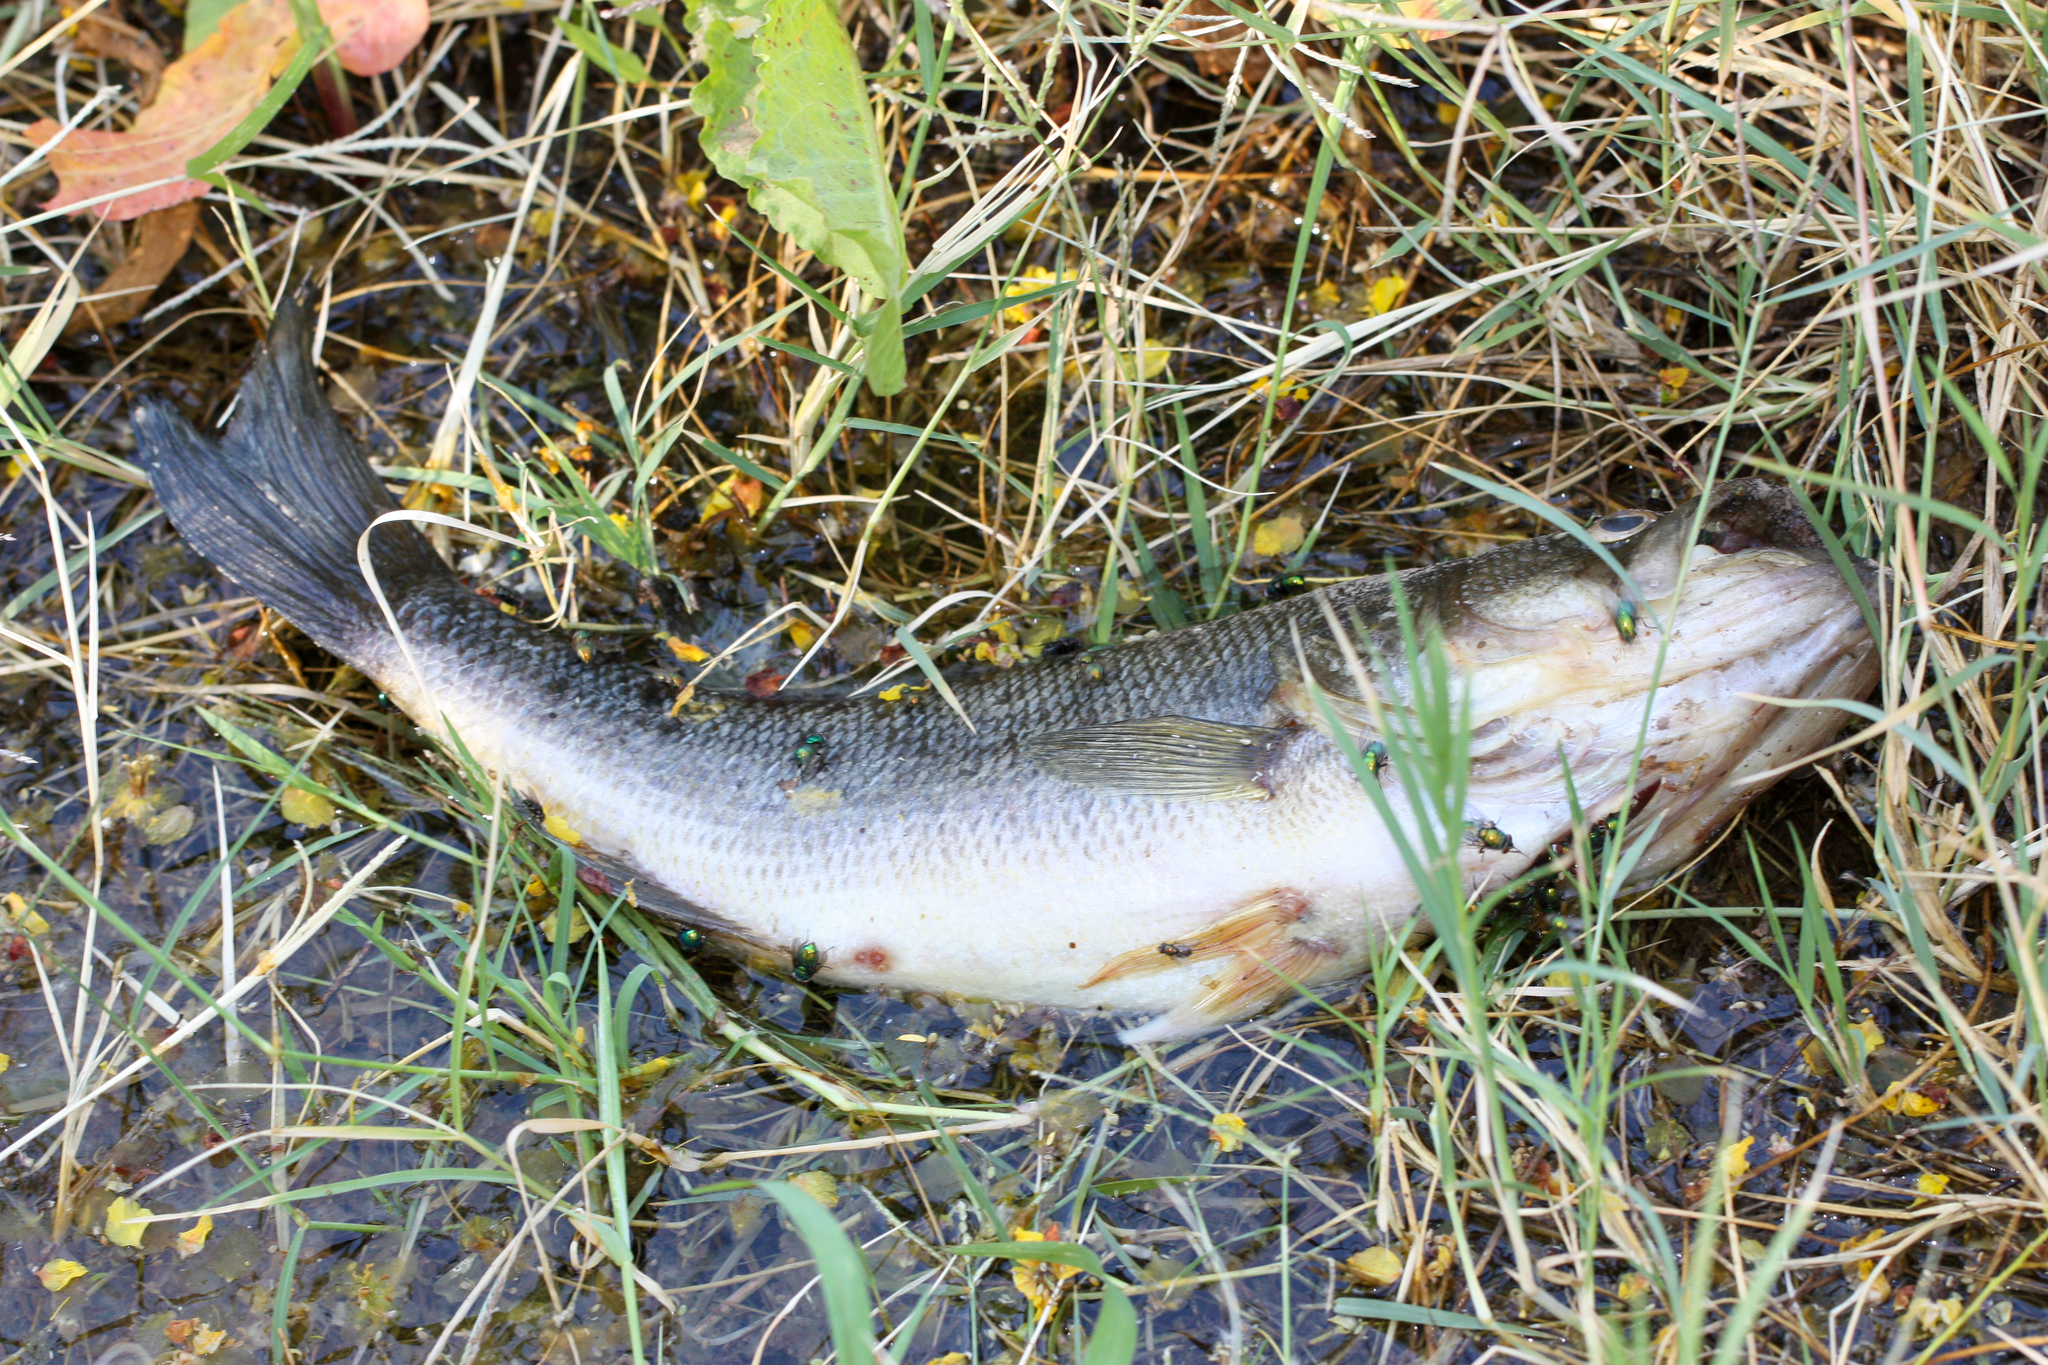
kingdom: Animalia
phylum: Chordata
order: Perciformes
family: Centrarchidae
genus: Micropterus
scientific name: Micropterus
